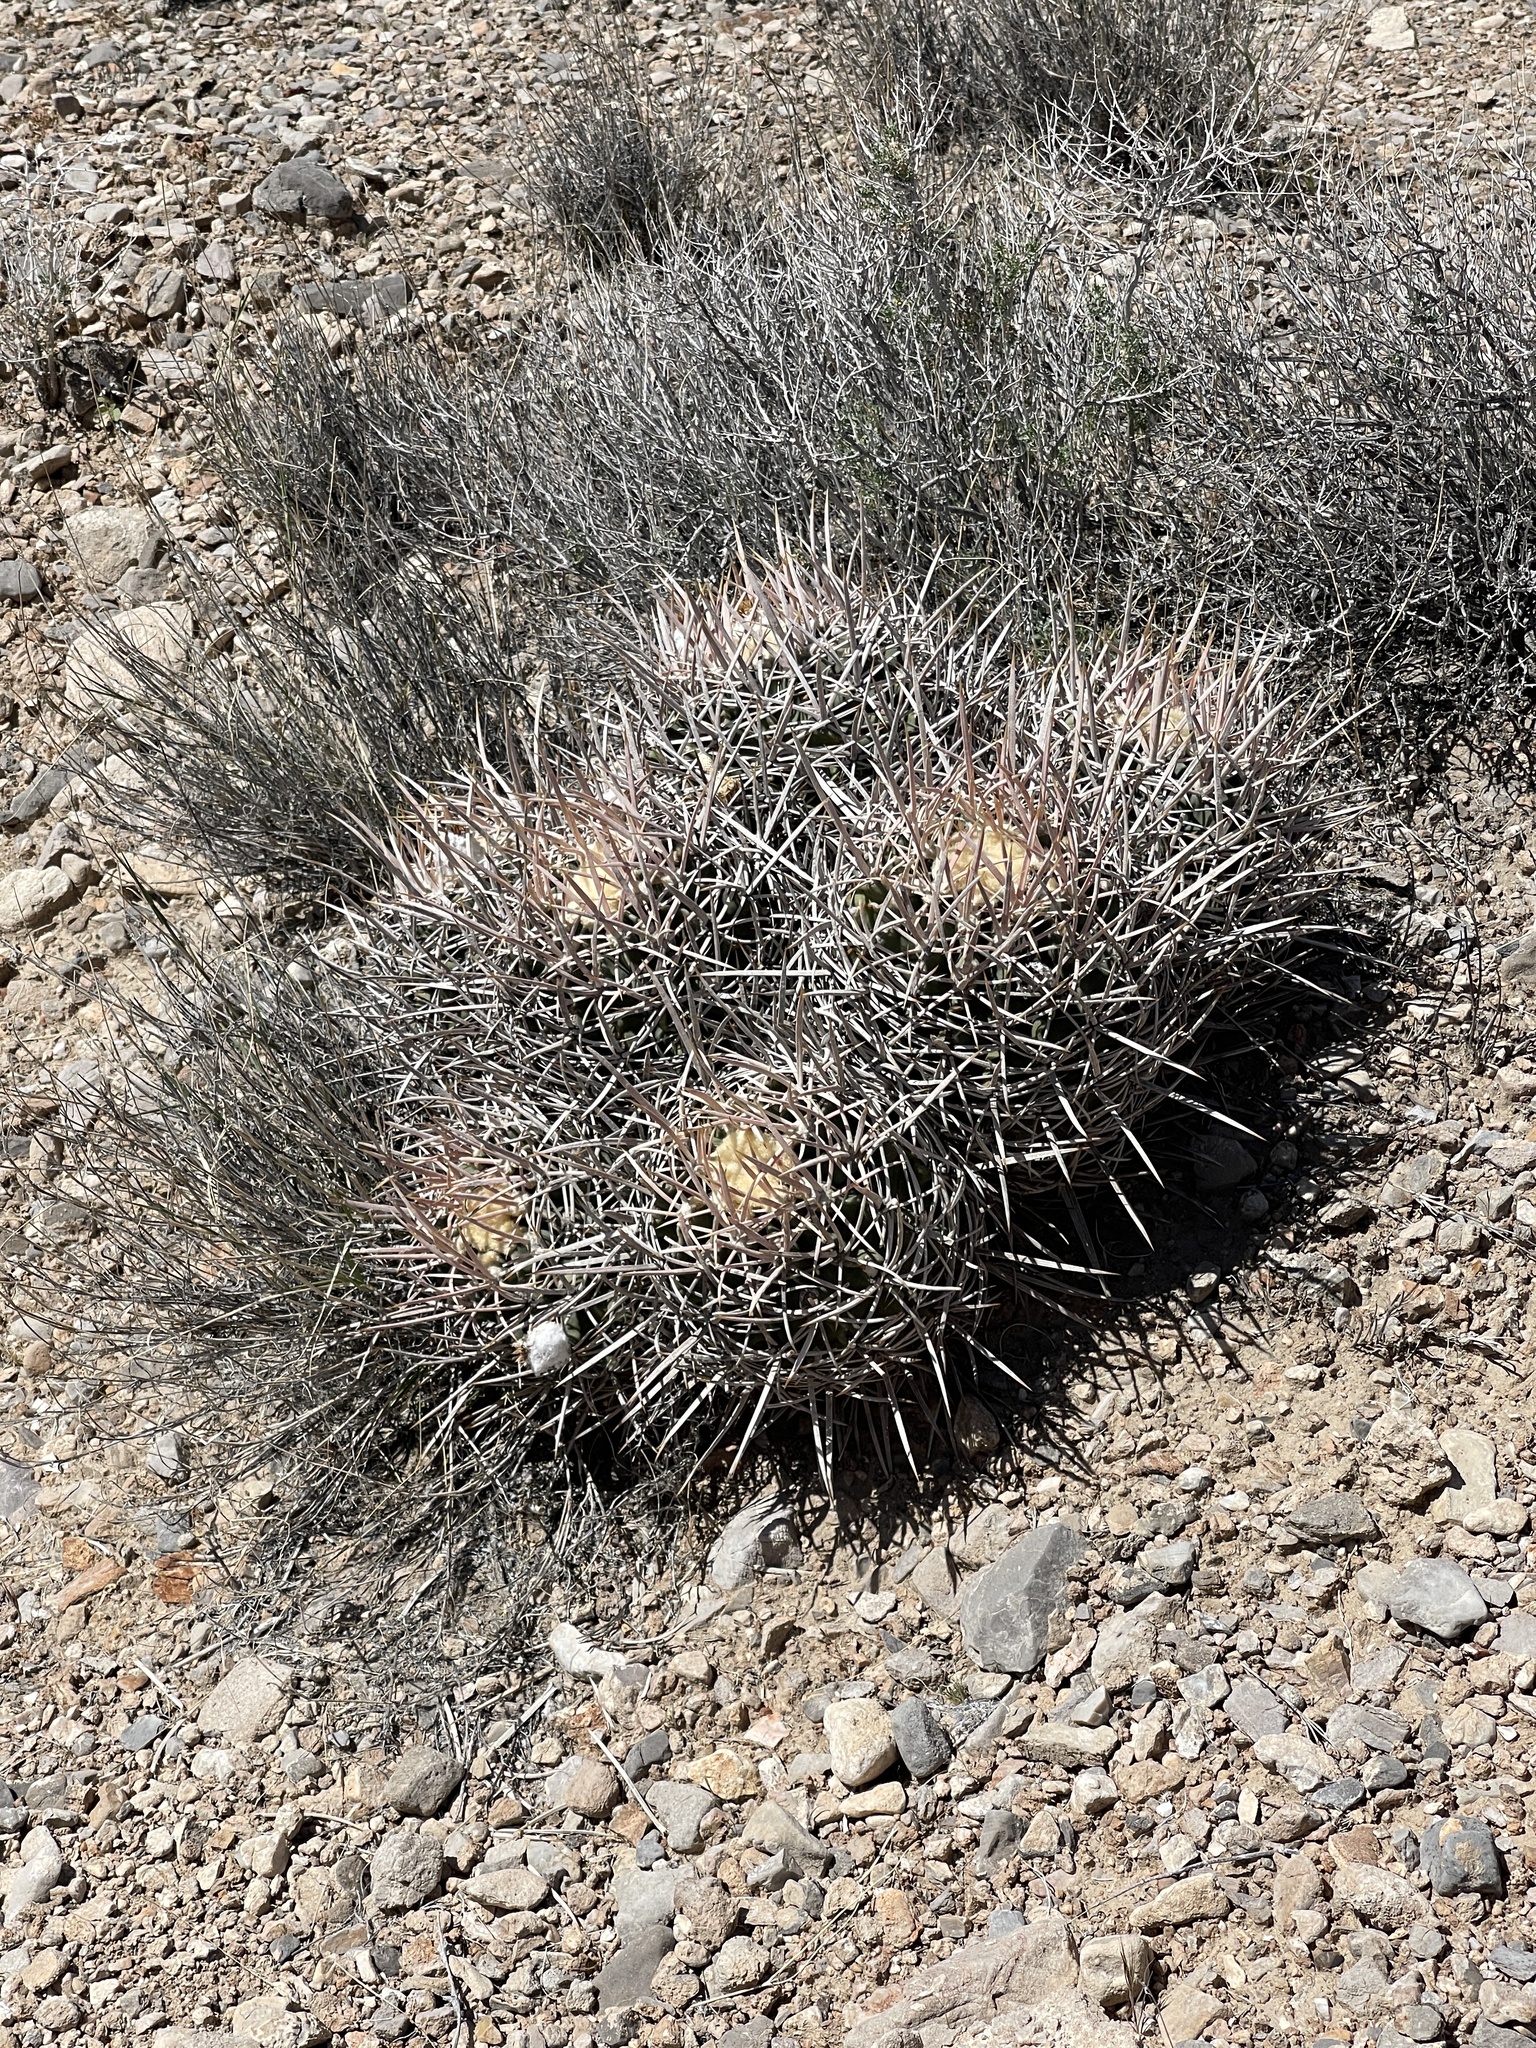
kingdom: Plantae
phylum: Tracheophyta
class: Magnoliopsida
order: Caryophyllales
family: Cactaceae
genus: Echinocactus
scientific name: Echinocactus polycephalus
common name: Cottontop cactus
